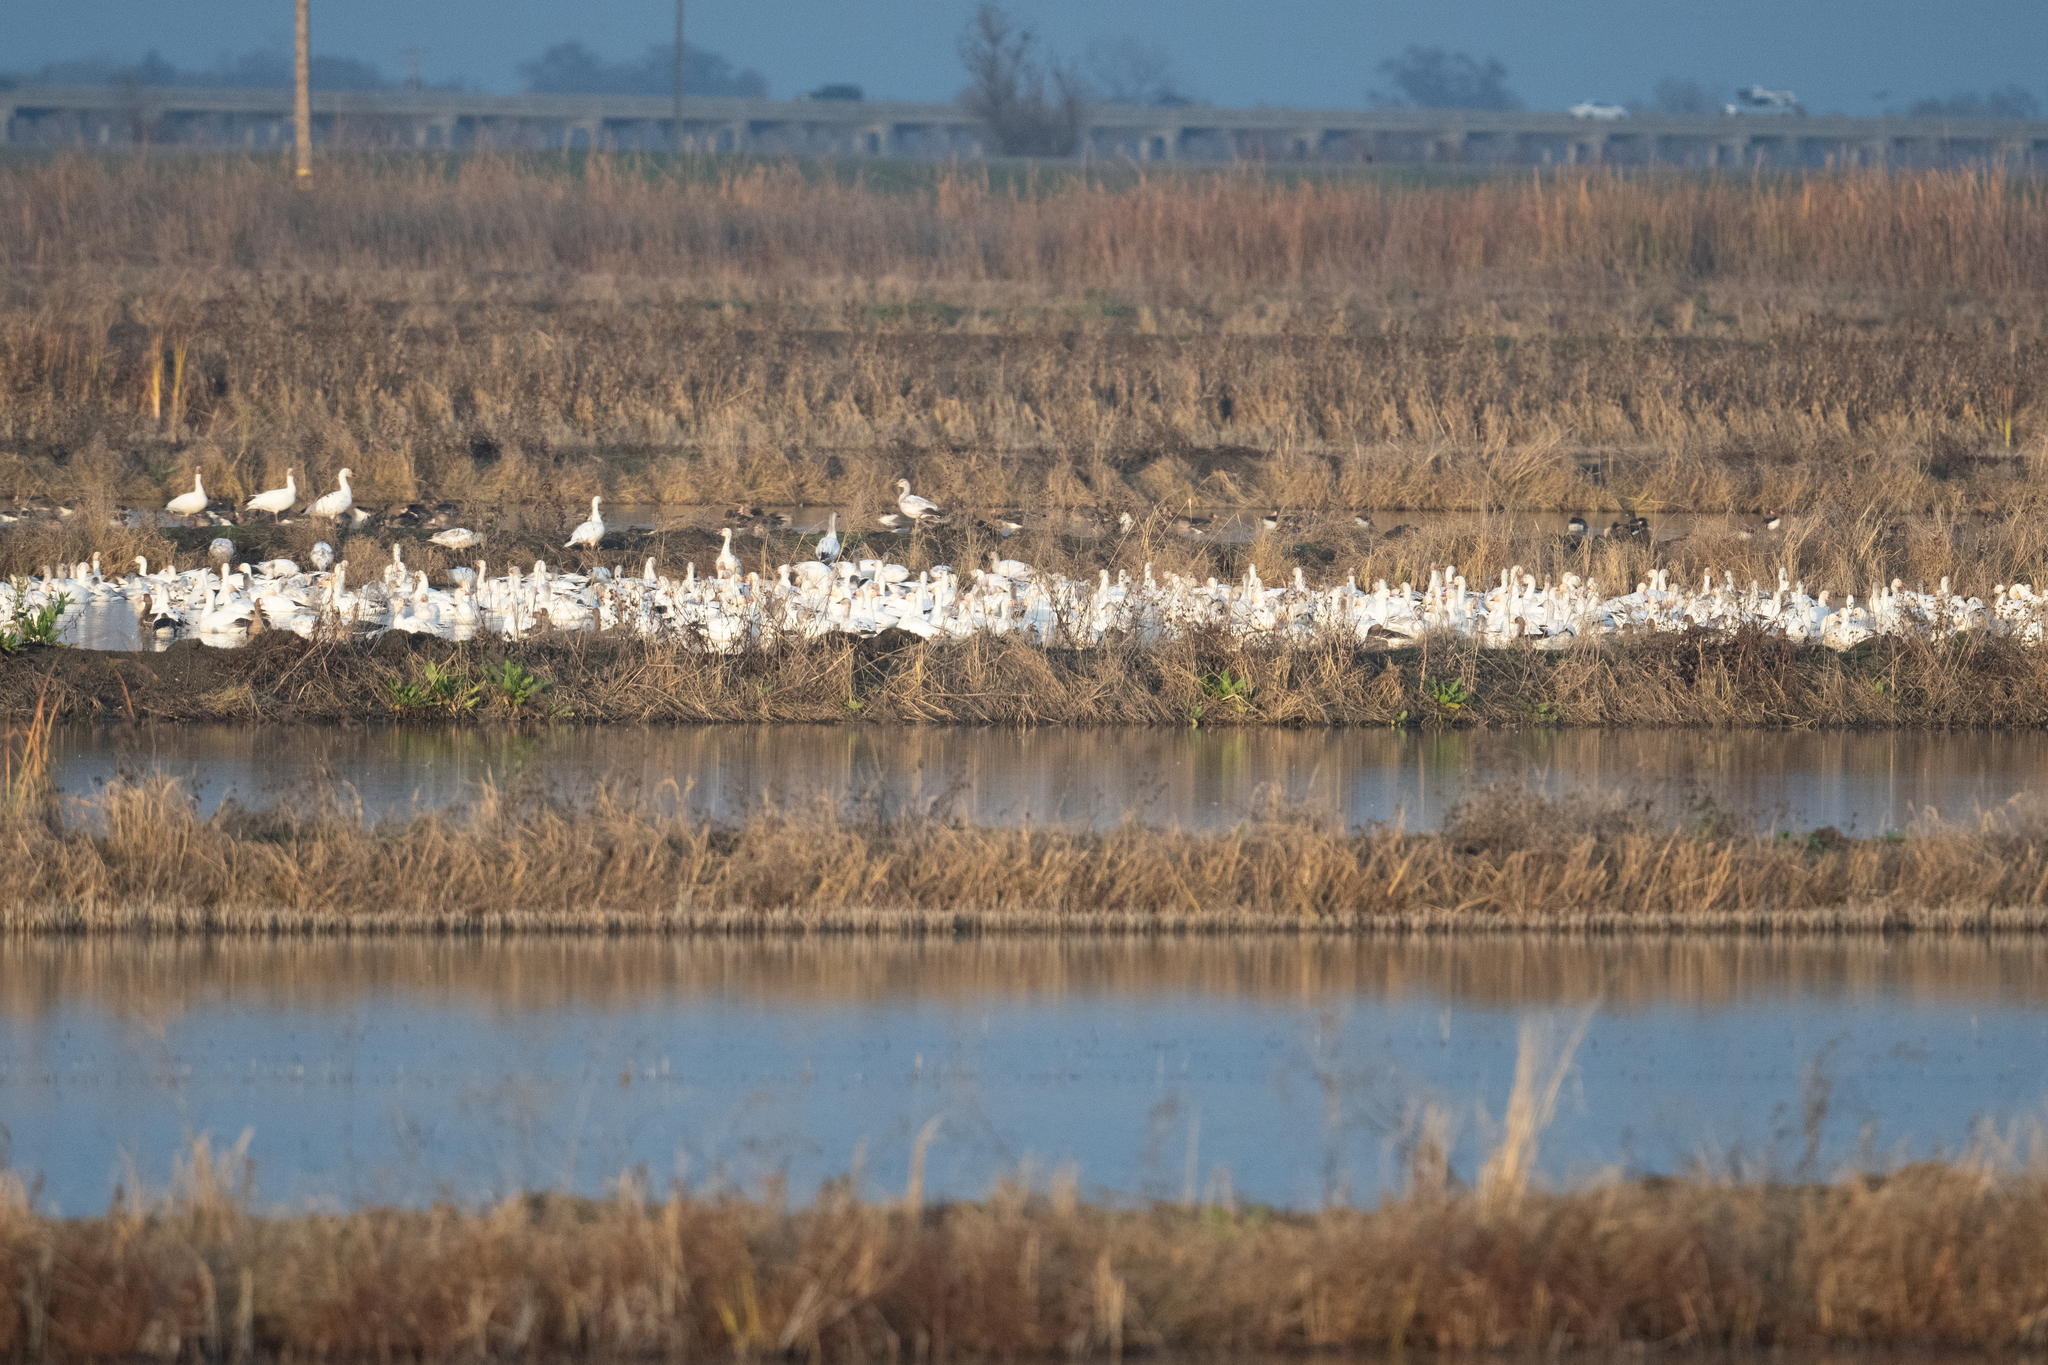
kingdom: Animalia
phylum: Chordata
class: Aves
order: Anseriformes
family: Anatidae
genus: Anser
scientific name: Anser caerulescens
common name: Snow goose
